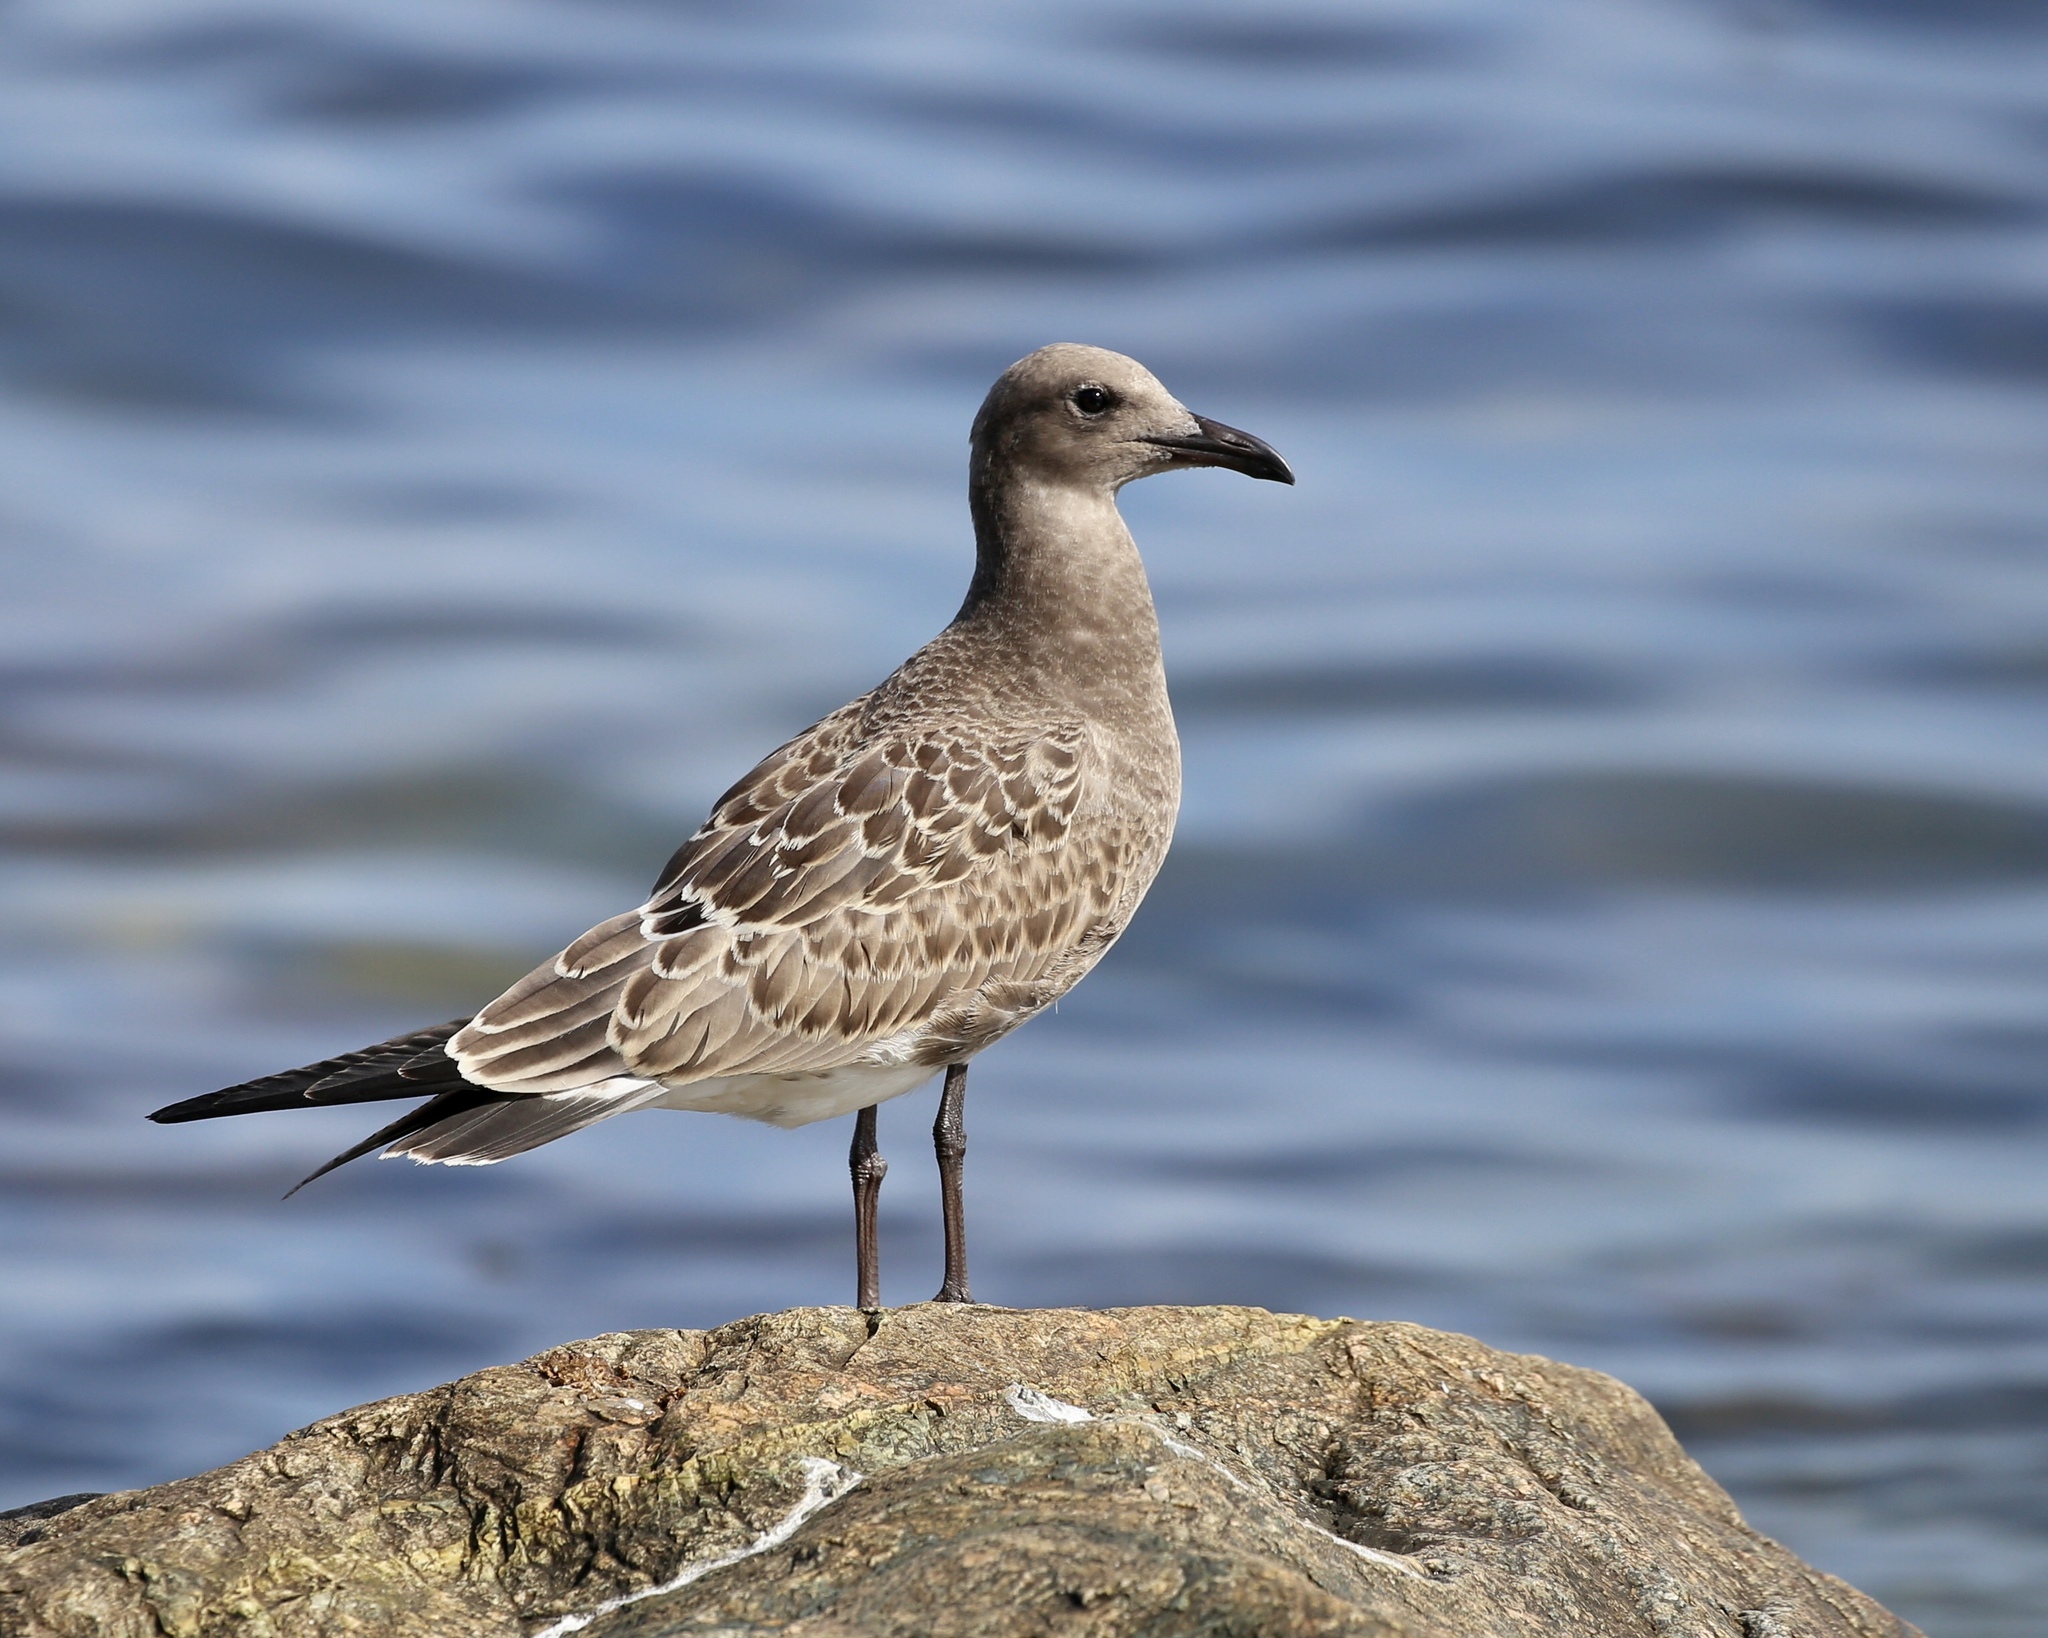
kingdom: Animalia
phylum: Chordata
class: Aves
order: Charadriiformes
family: Laridae
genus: Leucophaeus
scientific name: Leucophaeus atricilla
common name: Laughing gull
